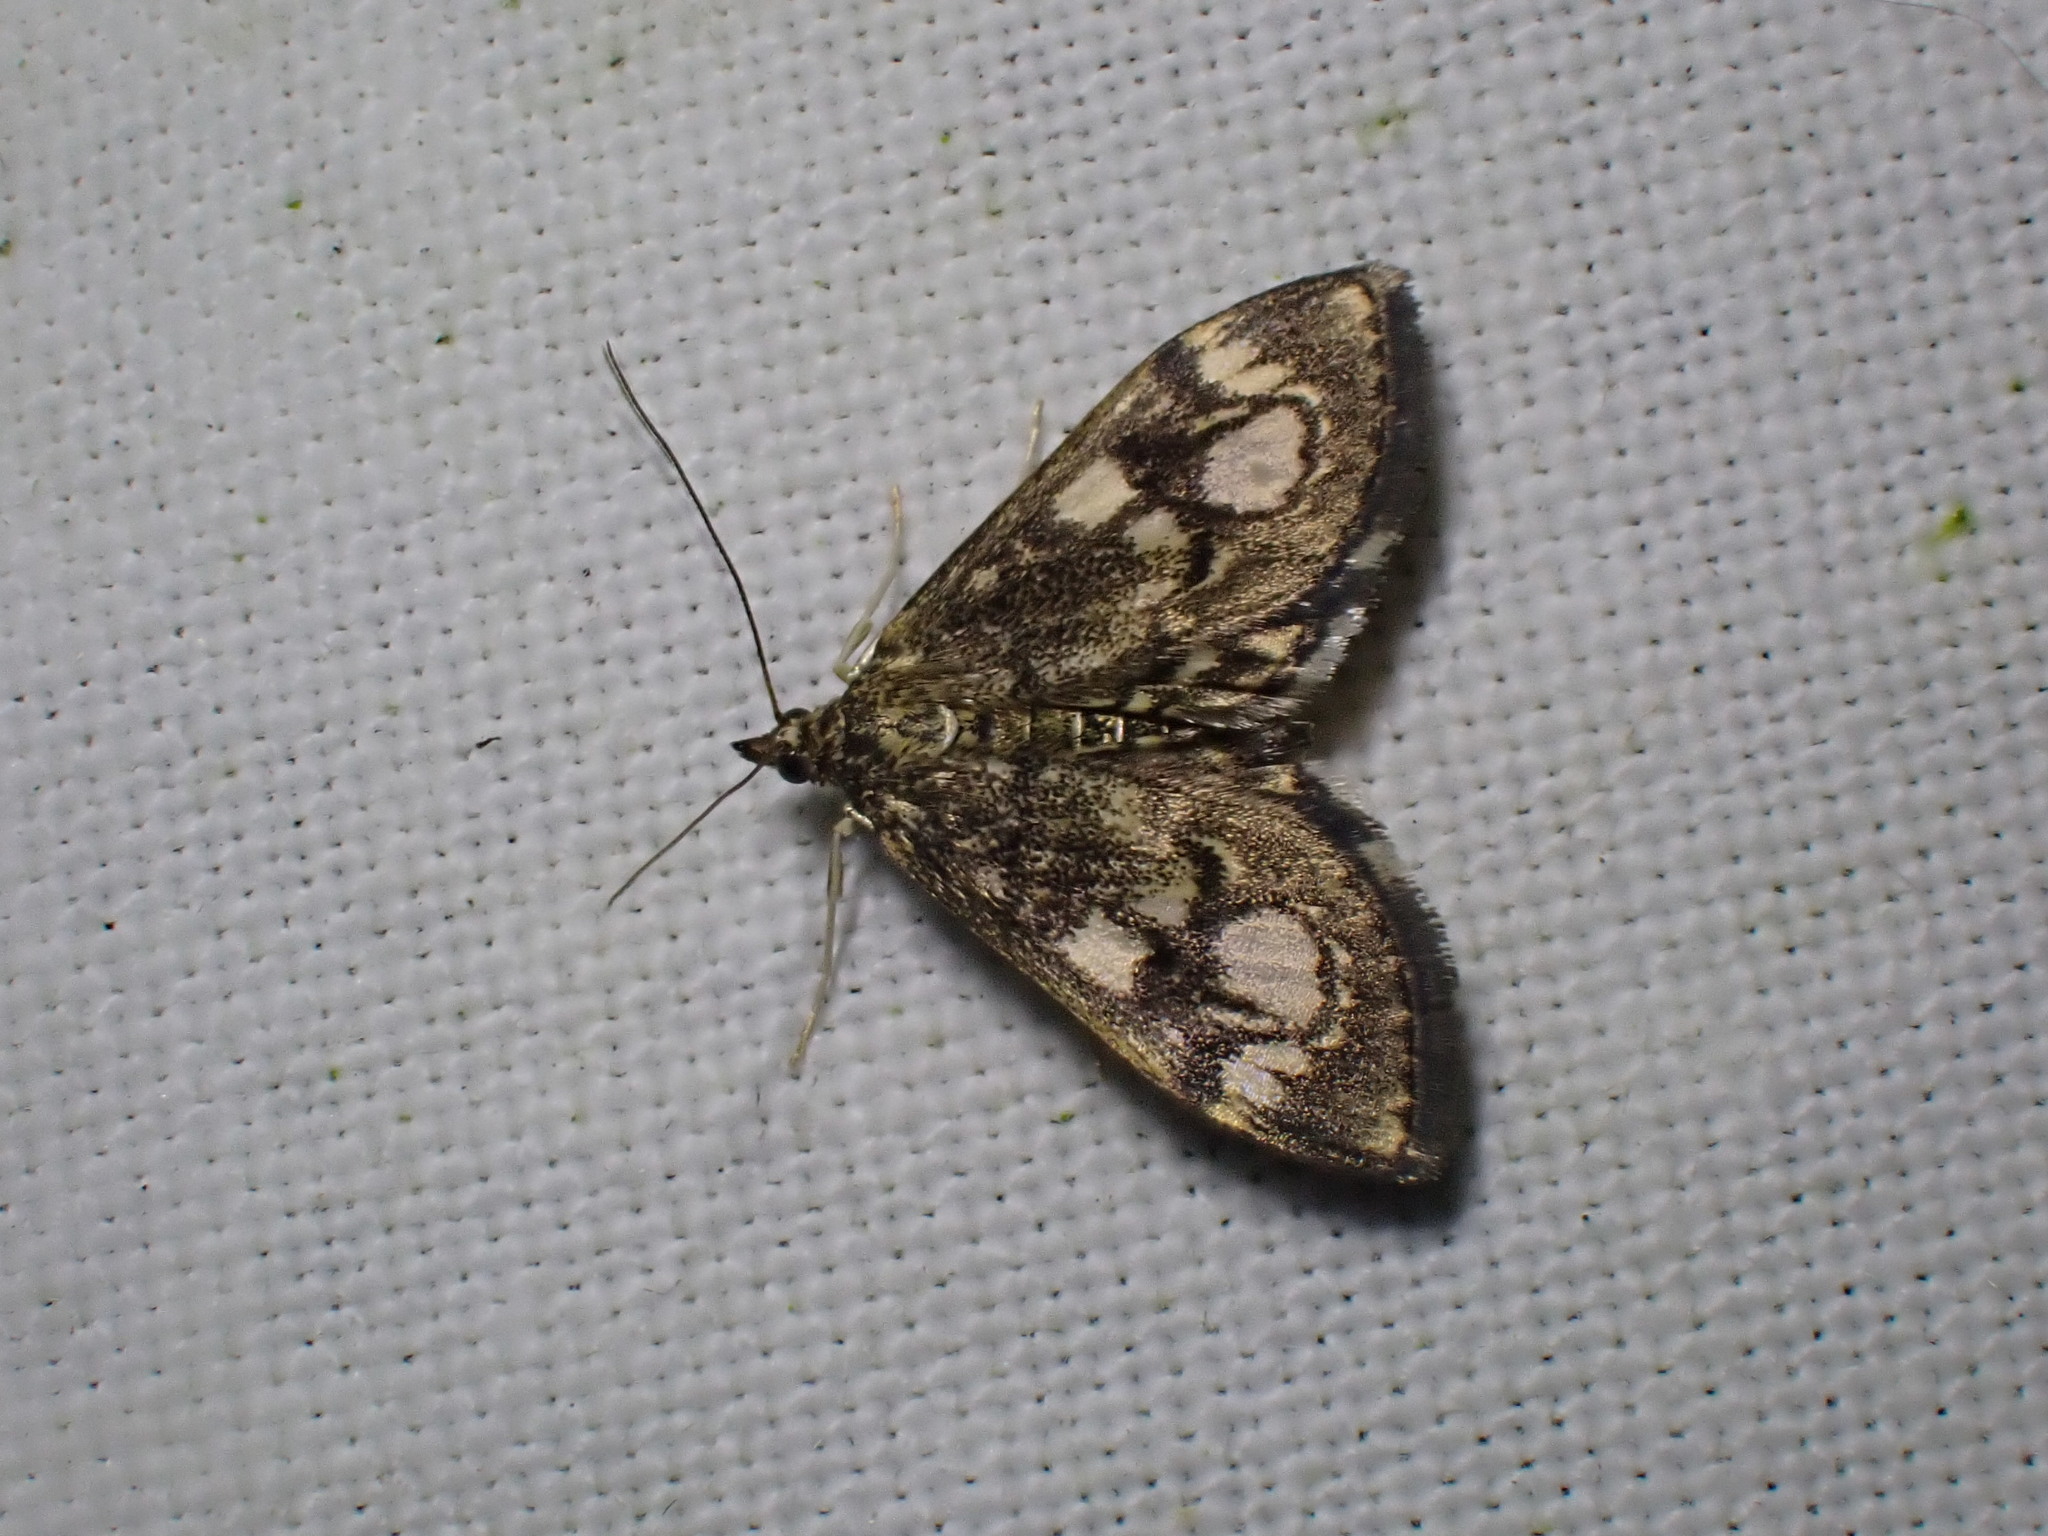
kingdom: Animalia
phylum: Arthropoda
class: Insecta
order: Lepidoptera
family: Crambidae
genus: Anania
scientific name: Anania coronata
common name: Elder pearl
